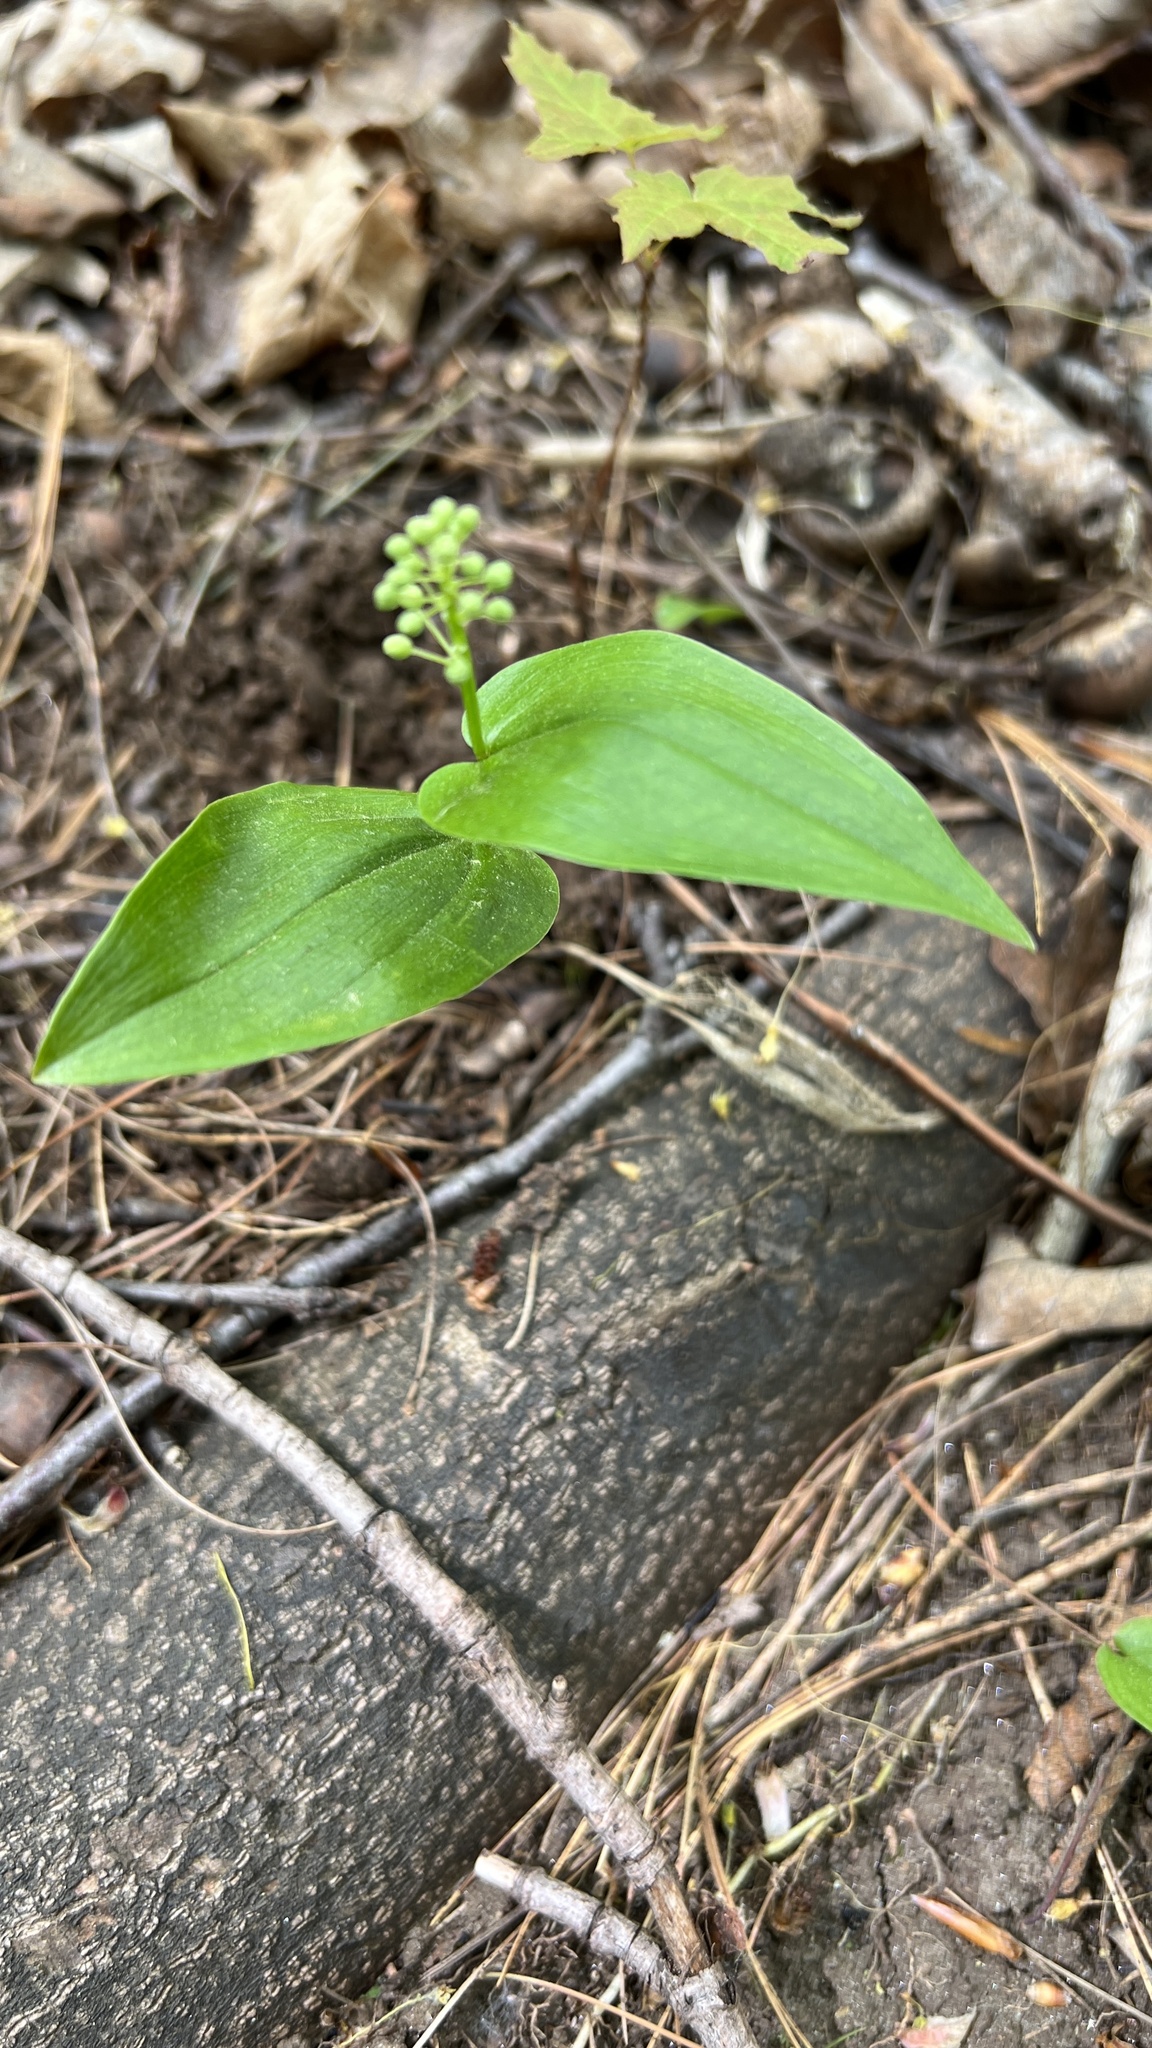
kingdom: Plantae
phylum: Tracheophyta
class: Liliopsida
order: Asparagales
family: Asparagaceae
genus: Maianthemum
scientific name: Maianthemum canadense
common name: False lily-of-the-valley
